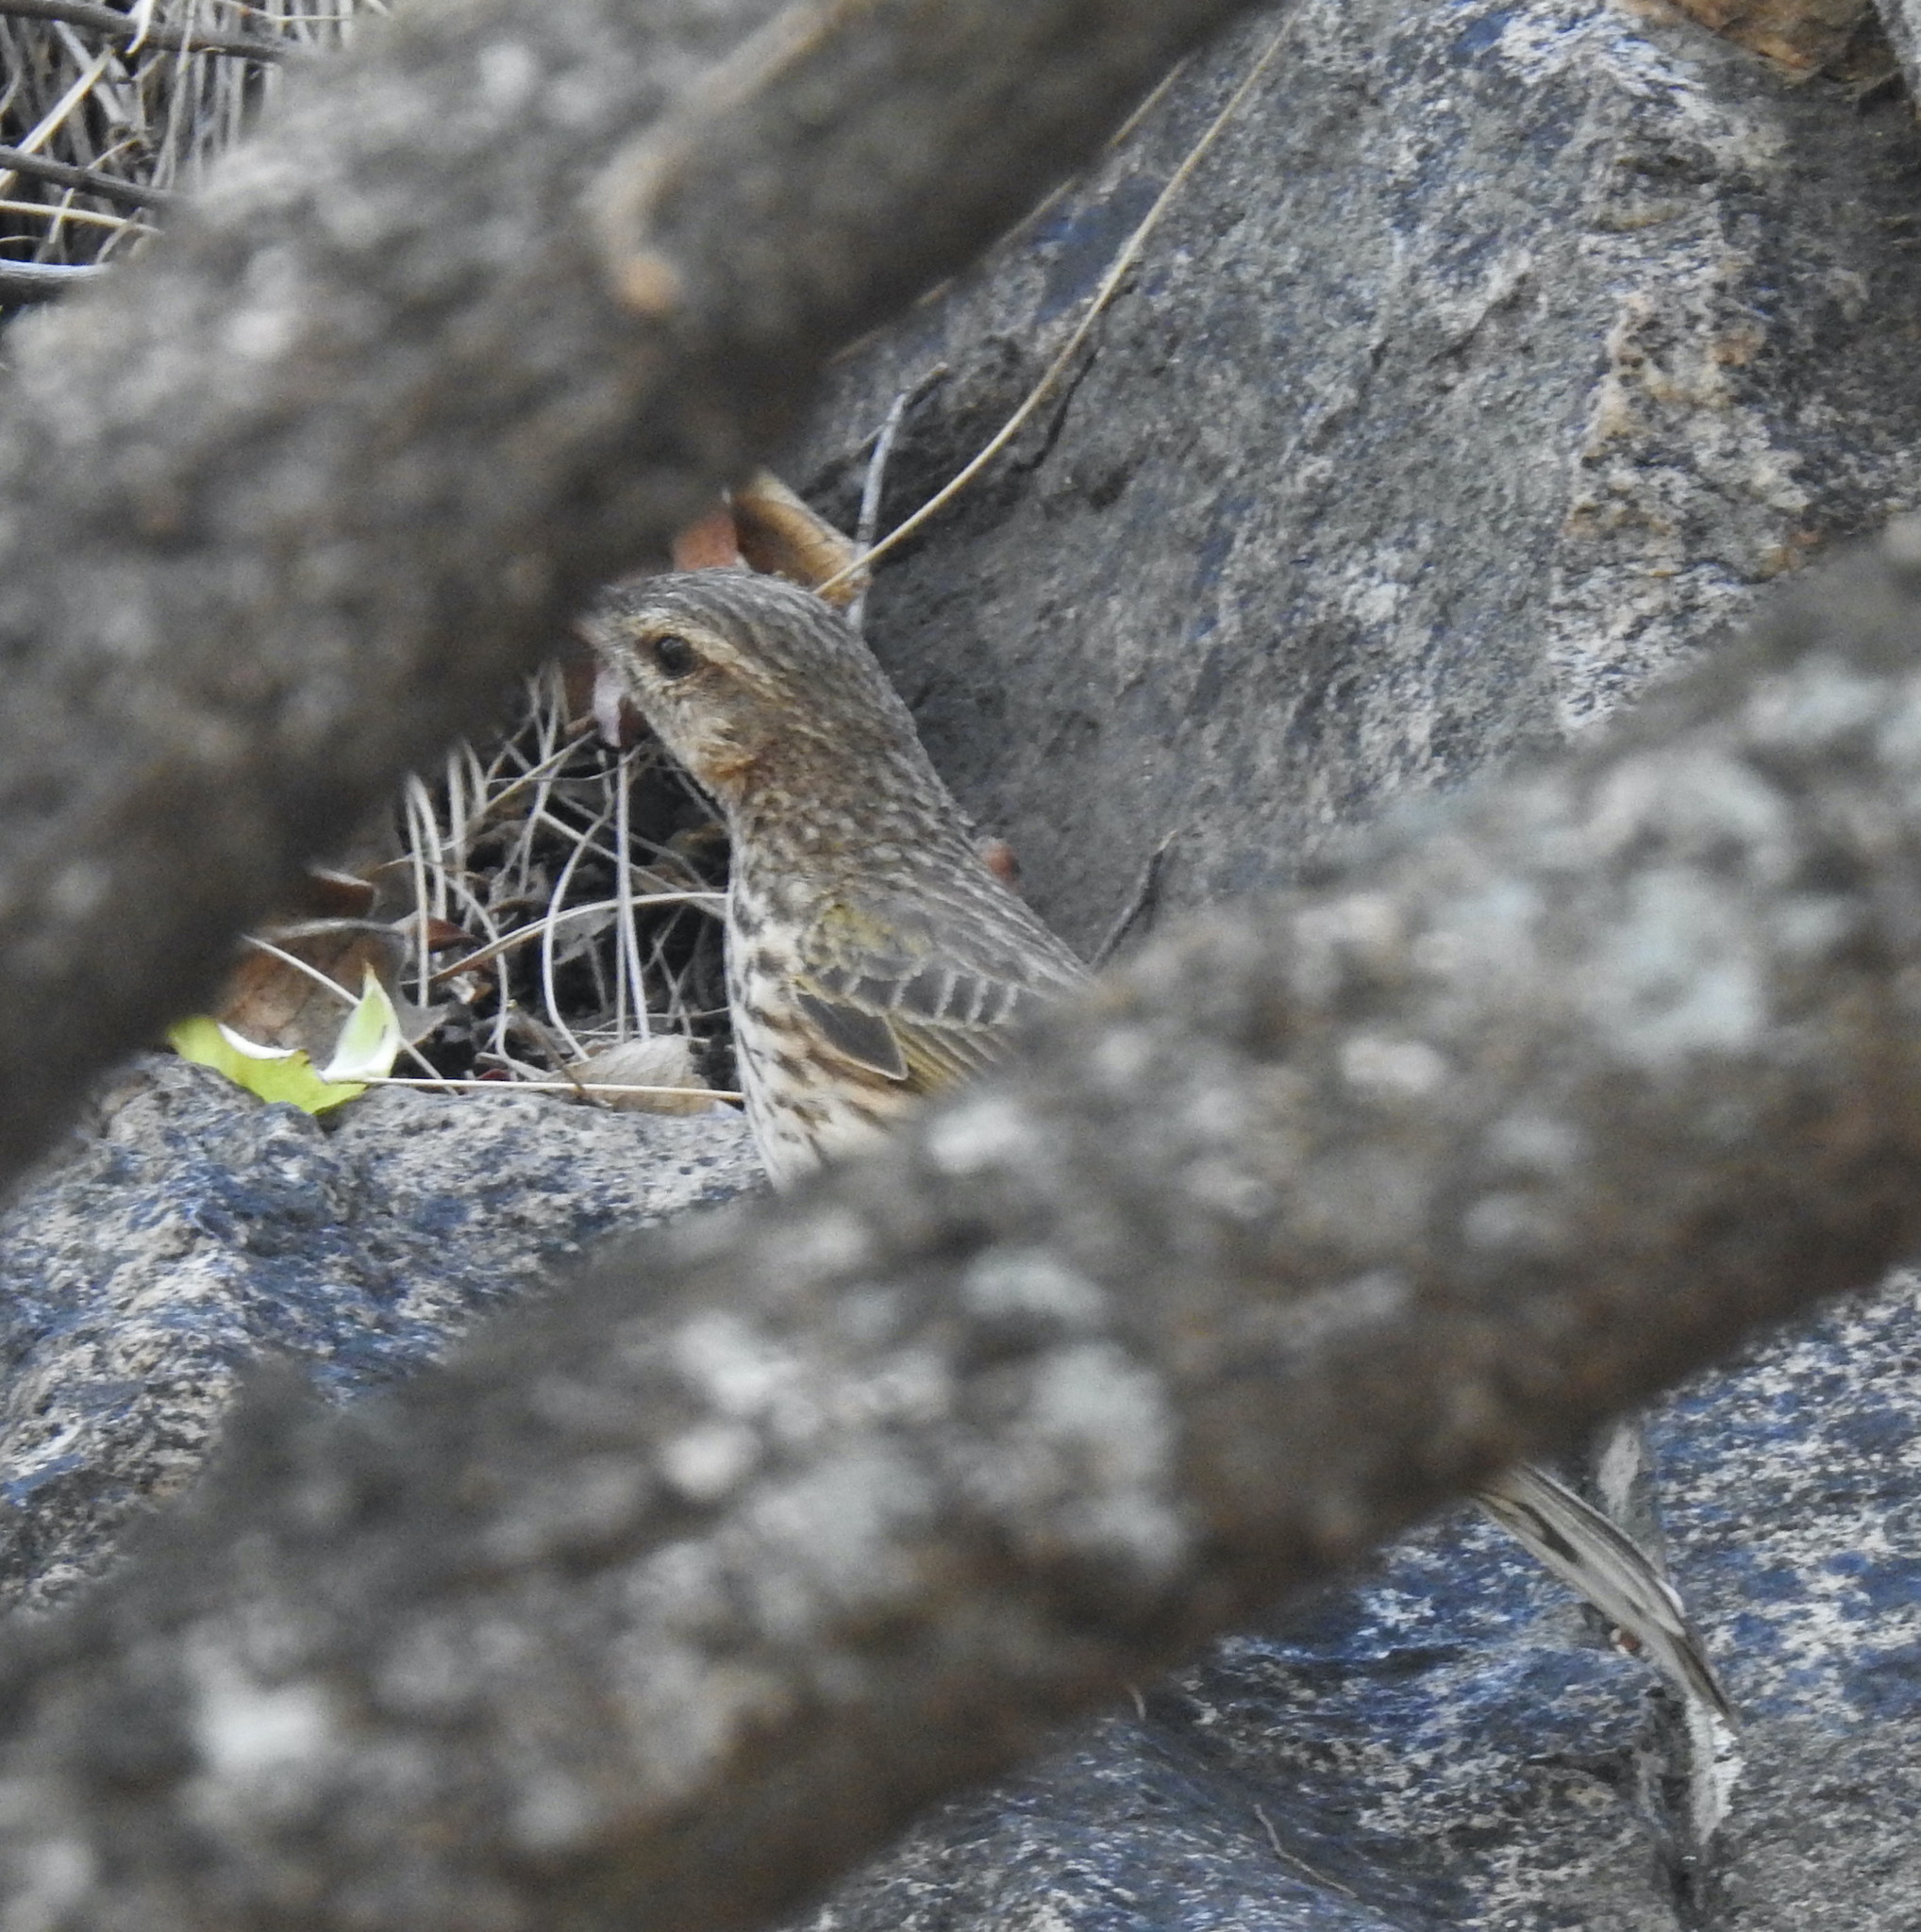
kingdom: Animalia
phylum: Chordata
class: Aves
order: Passeriformes
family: Motacillidae
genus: Anthus
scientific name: Anthus lineiventris
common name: Striped pipit
